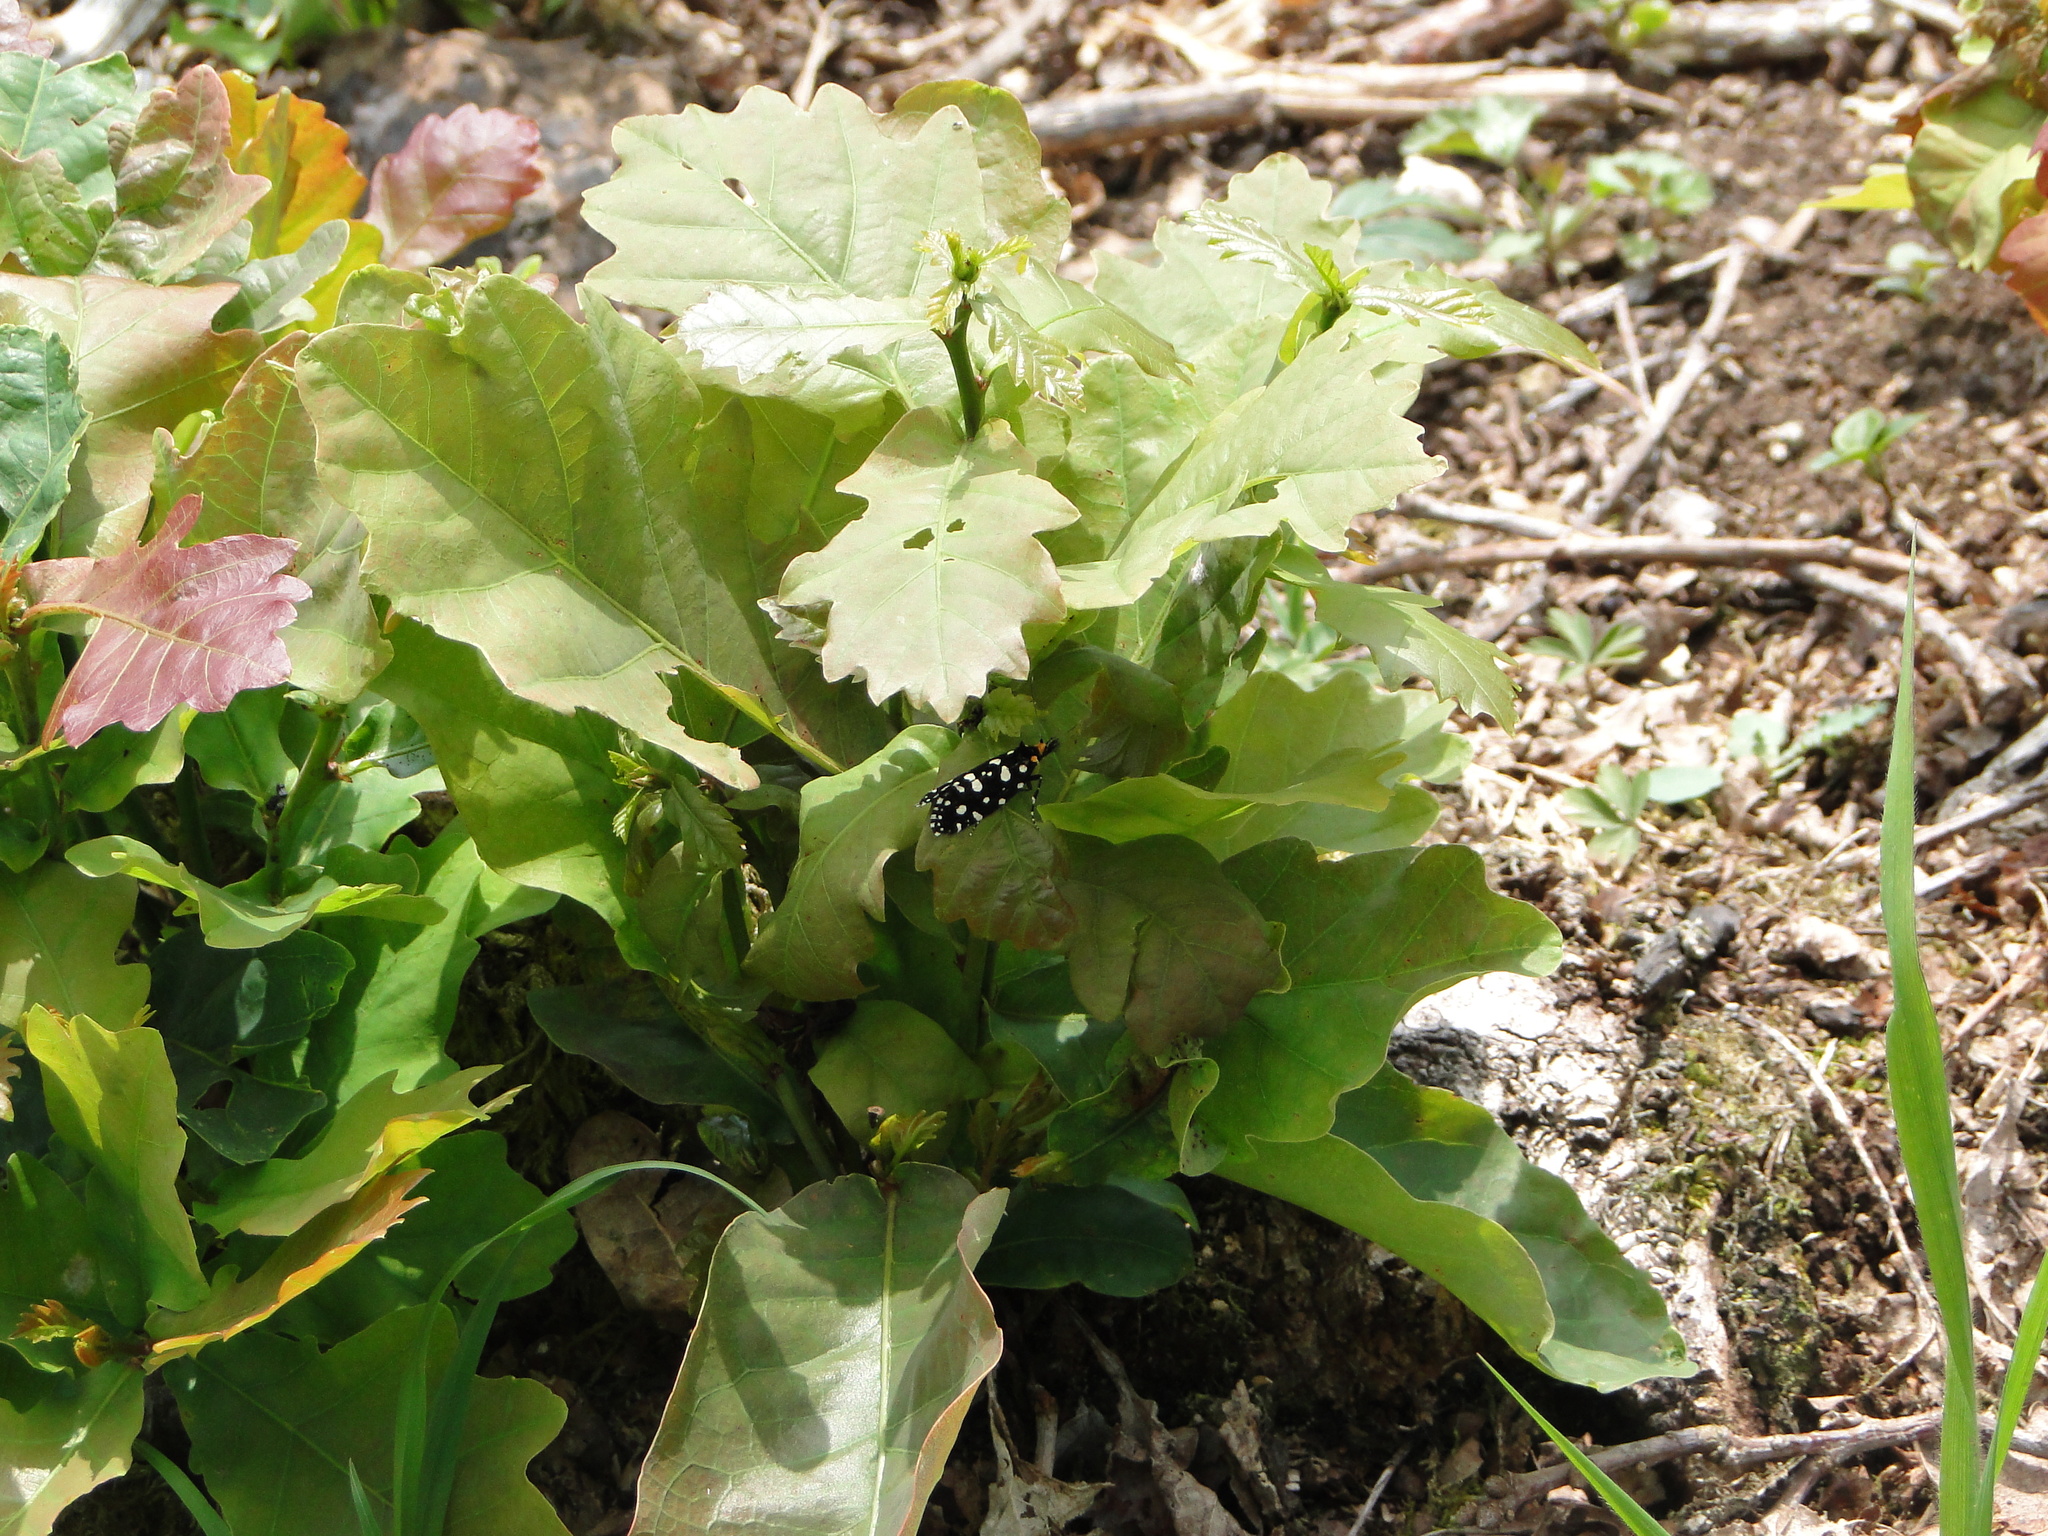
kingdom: Animalia
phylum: Arthropoda
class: Insecta
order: Lepidoptera
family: Tineidae
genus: Euplocamus
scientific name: Euplocamus anthracinalis
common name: Black clothes
